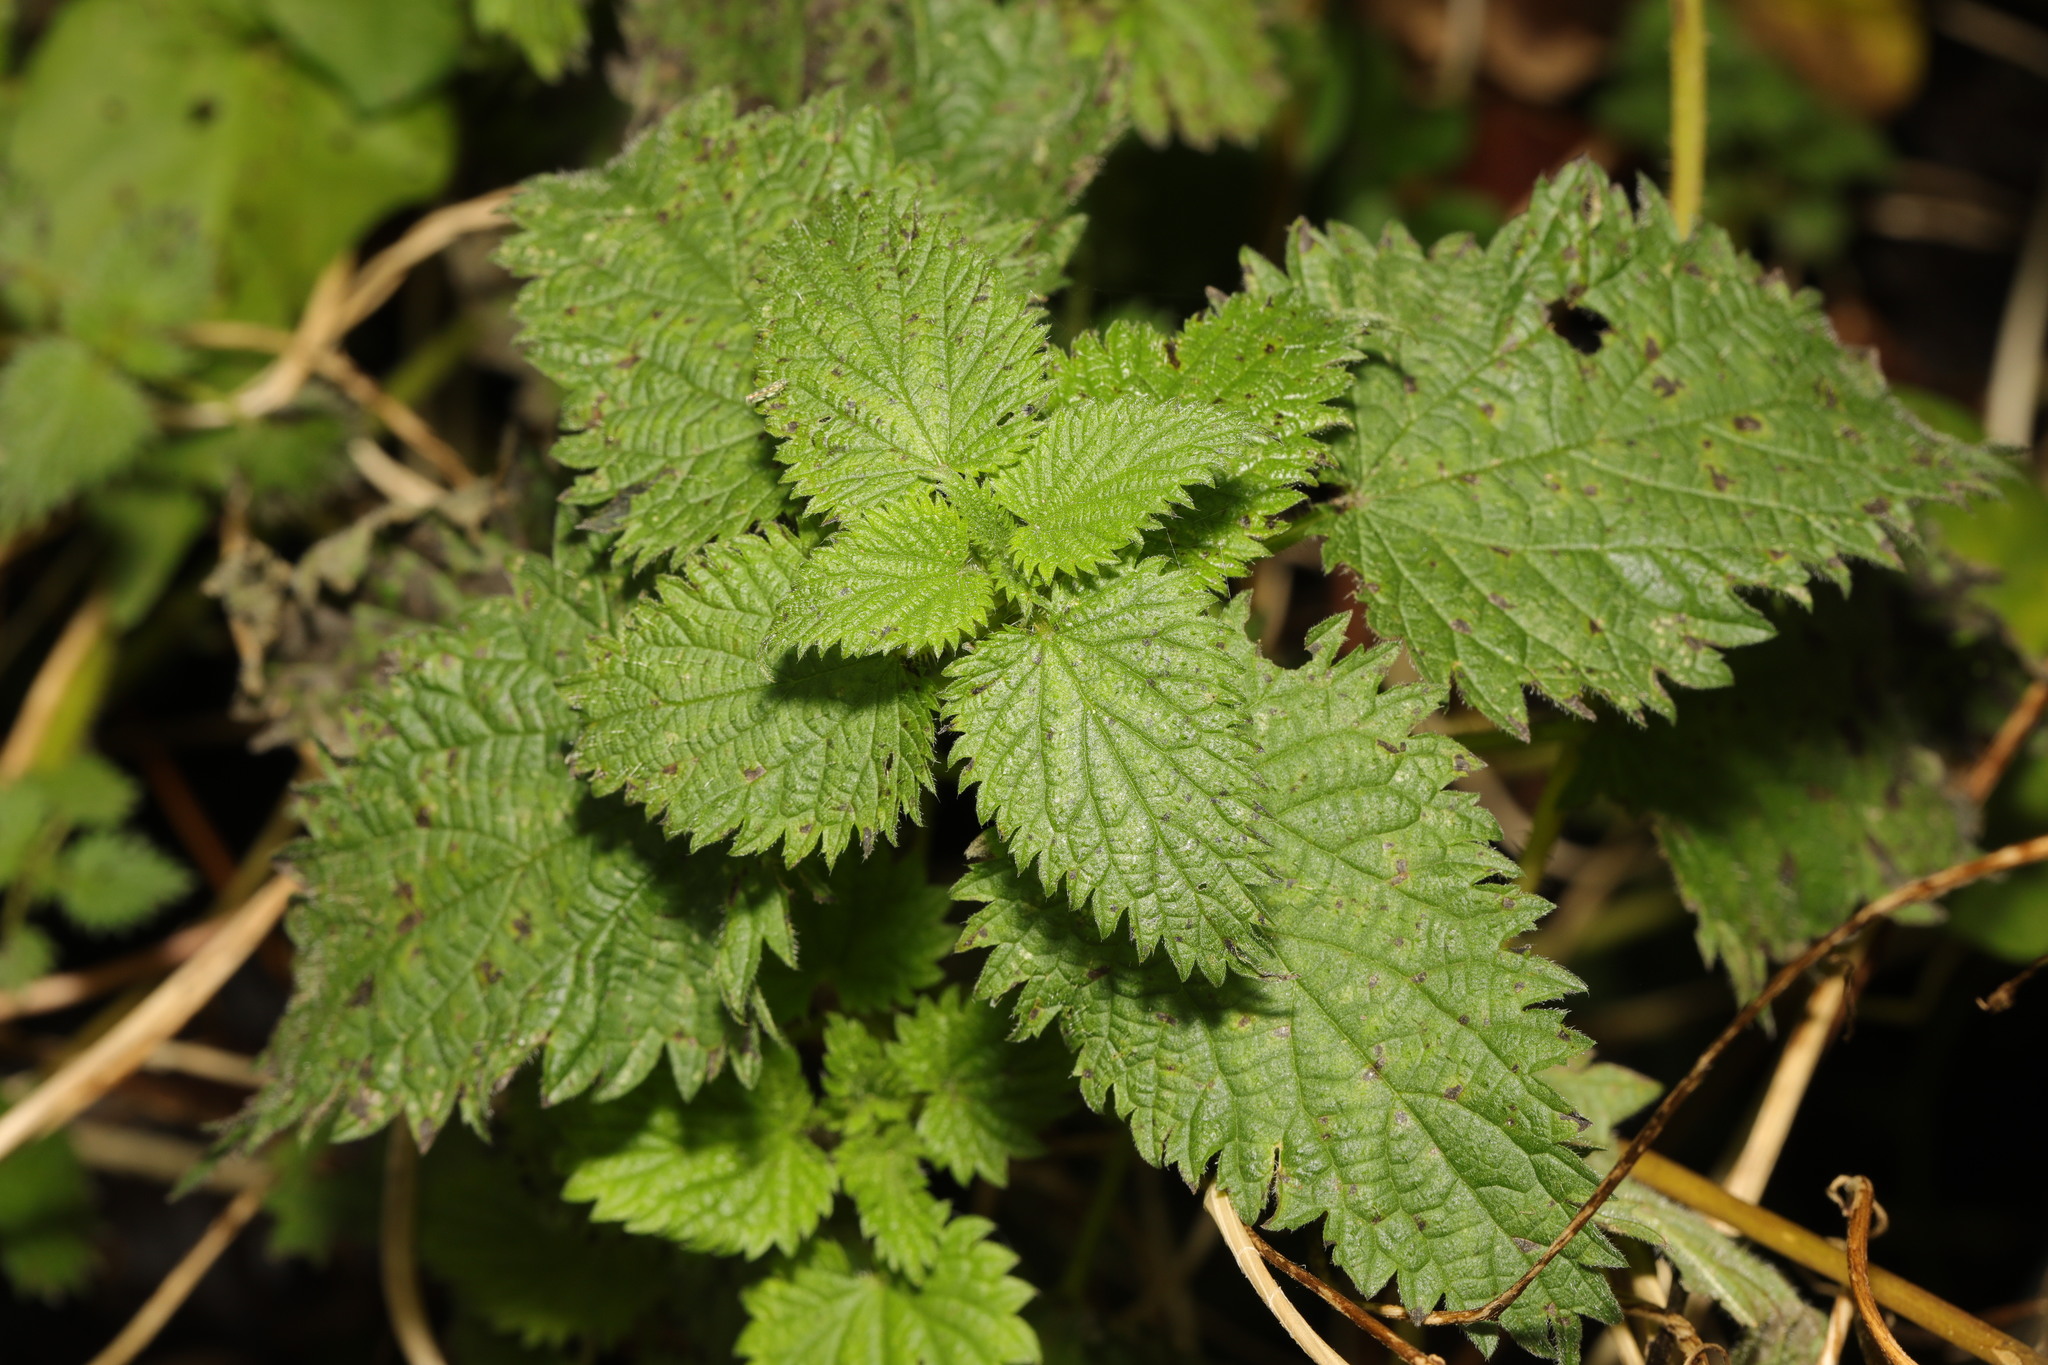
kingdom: Plantae
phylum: Tracheophyta
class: Magnoliopsida
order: Rosales
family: Urticaceae
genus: Urtica
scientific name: Urtica dioica
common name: Common nettle
